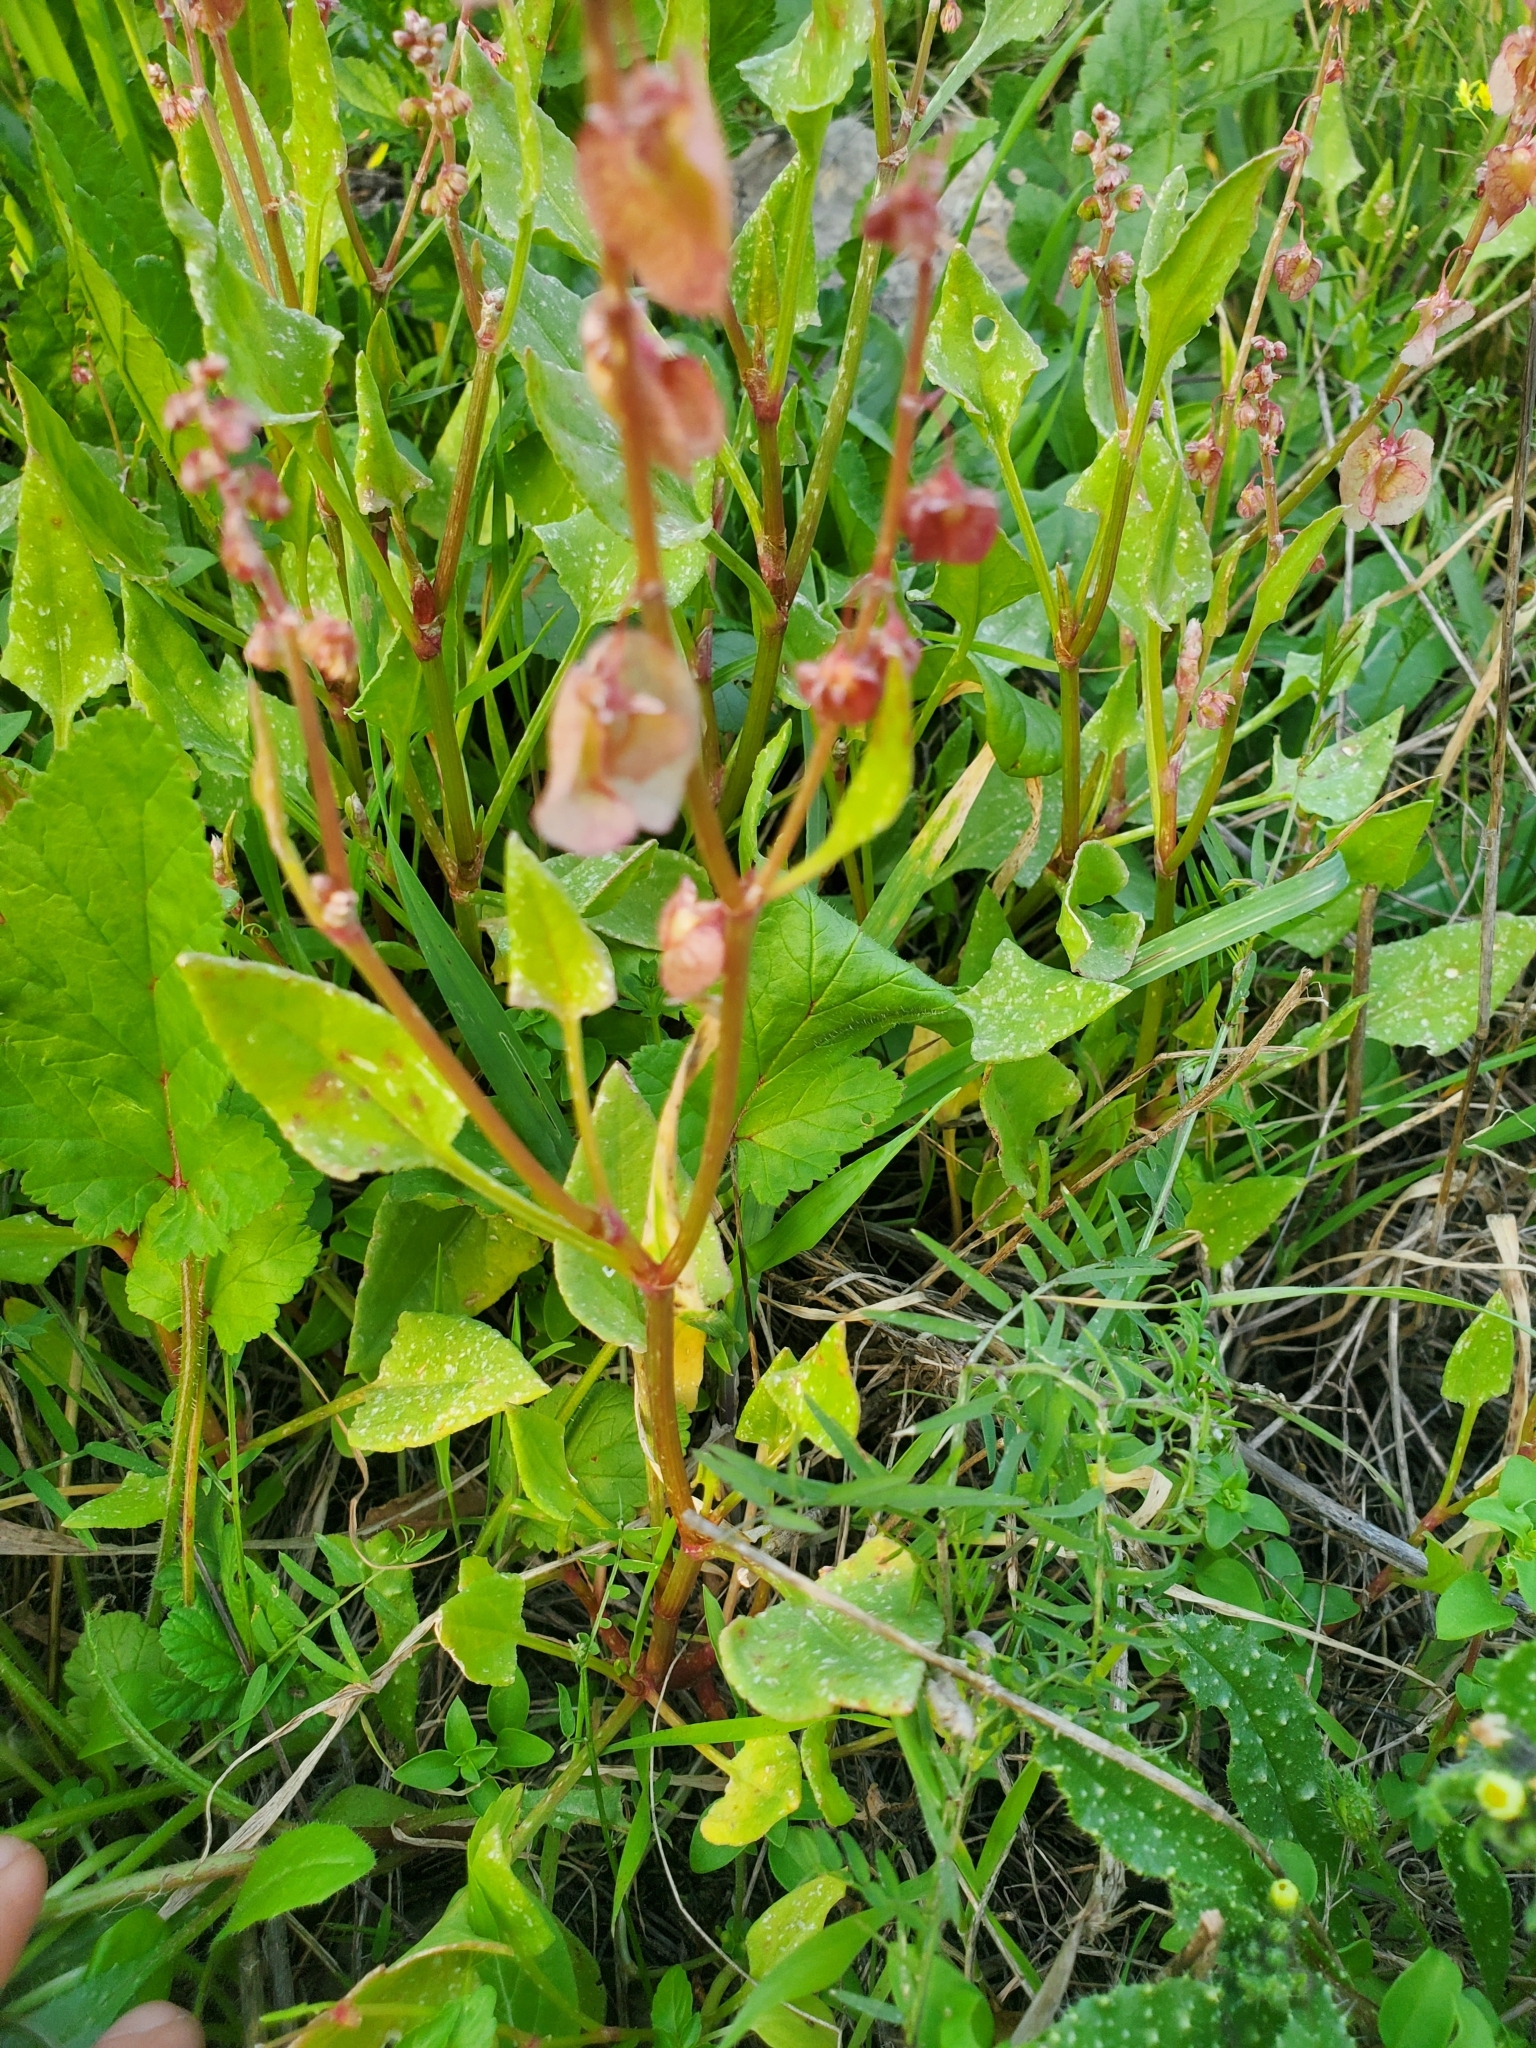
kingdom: Plantae
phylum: Tracheophyta
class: Magnoliopsida
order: Caryophyllales
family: Polygonaceae
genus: Rumex
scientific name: Rumex cyprius
